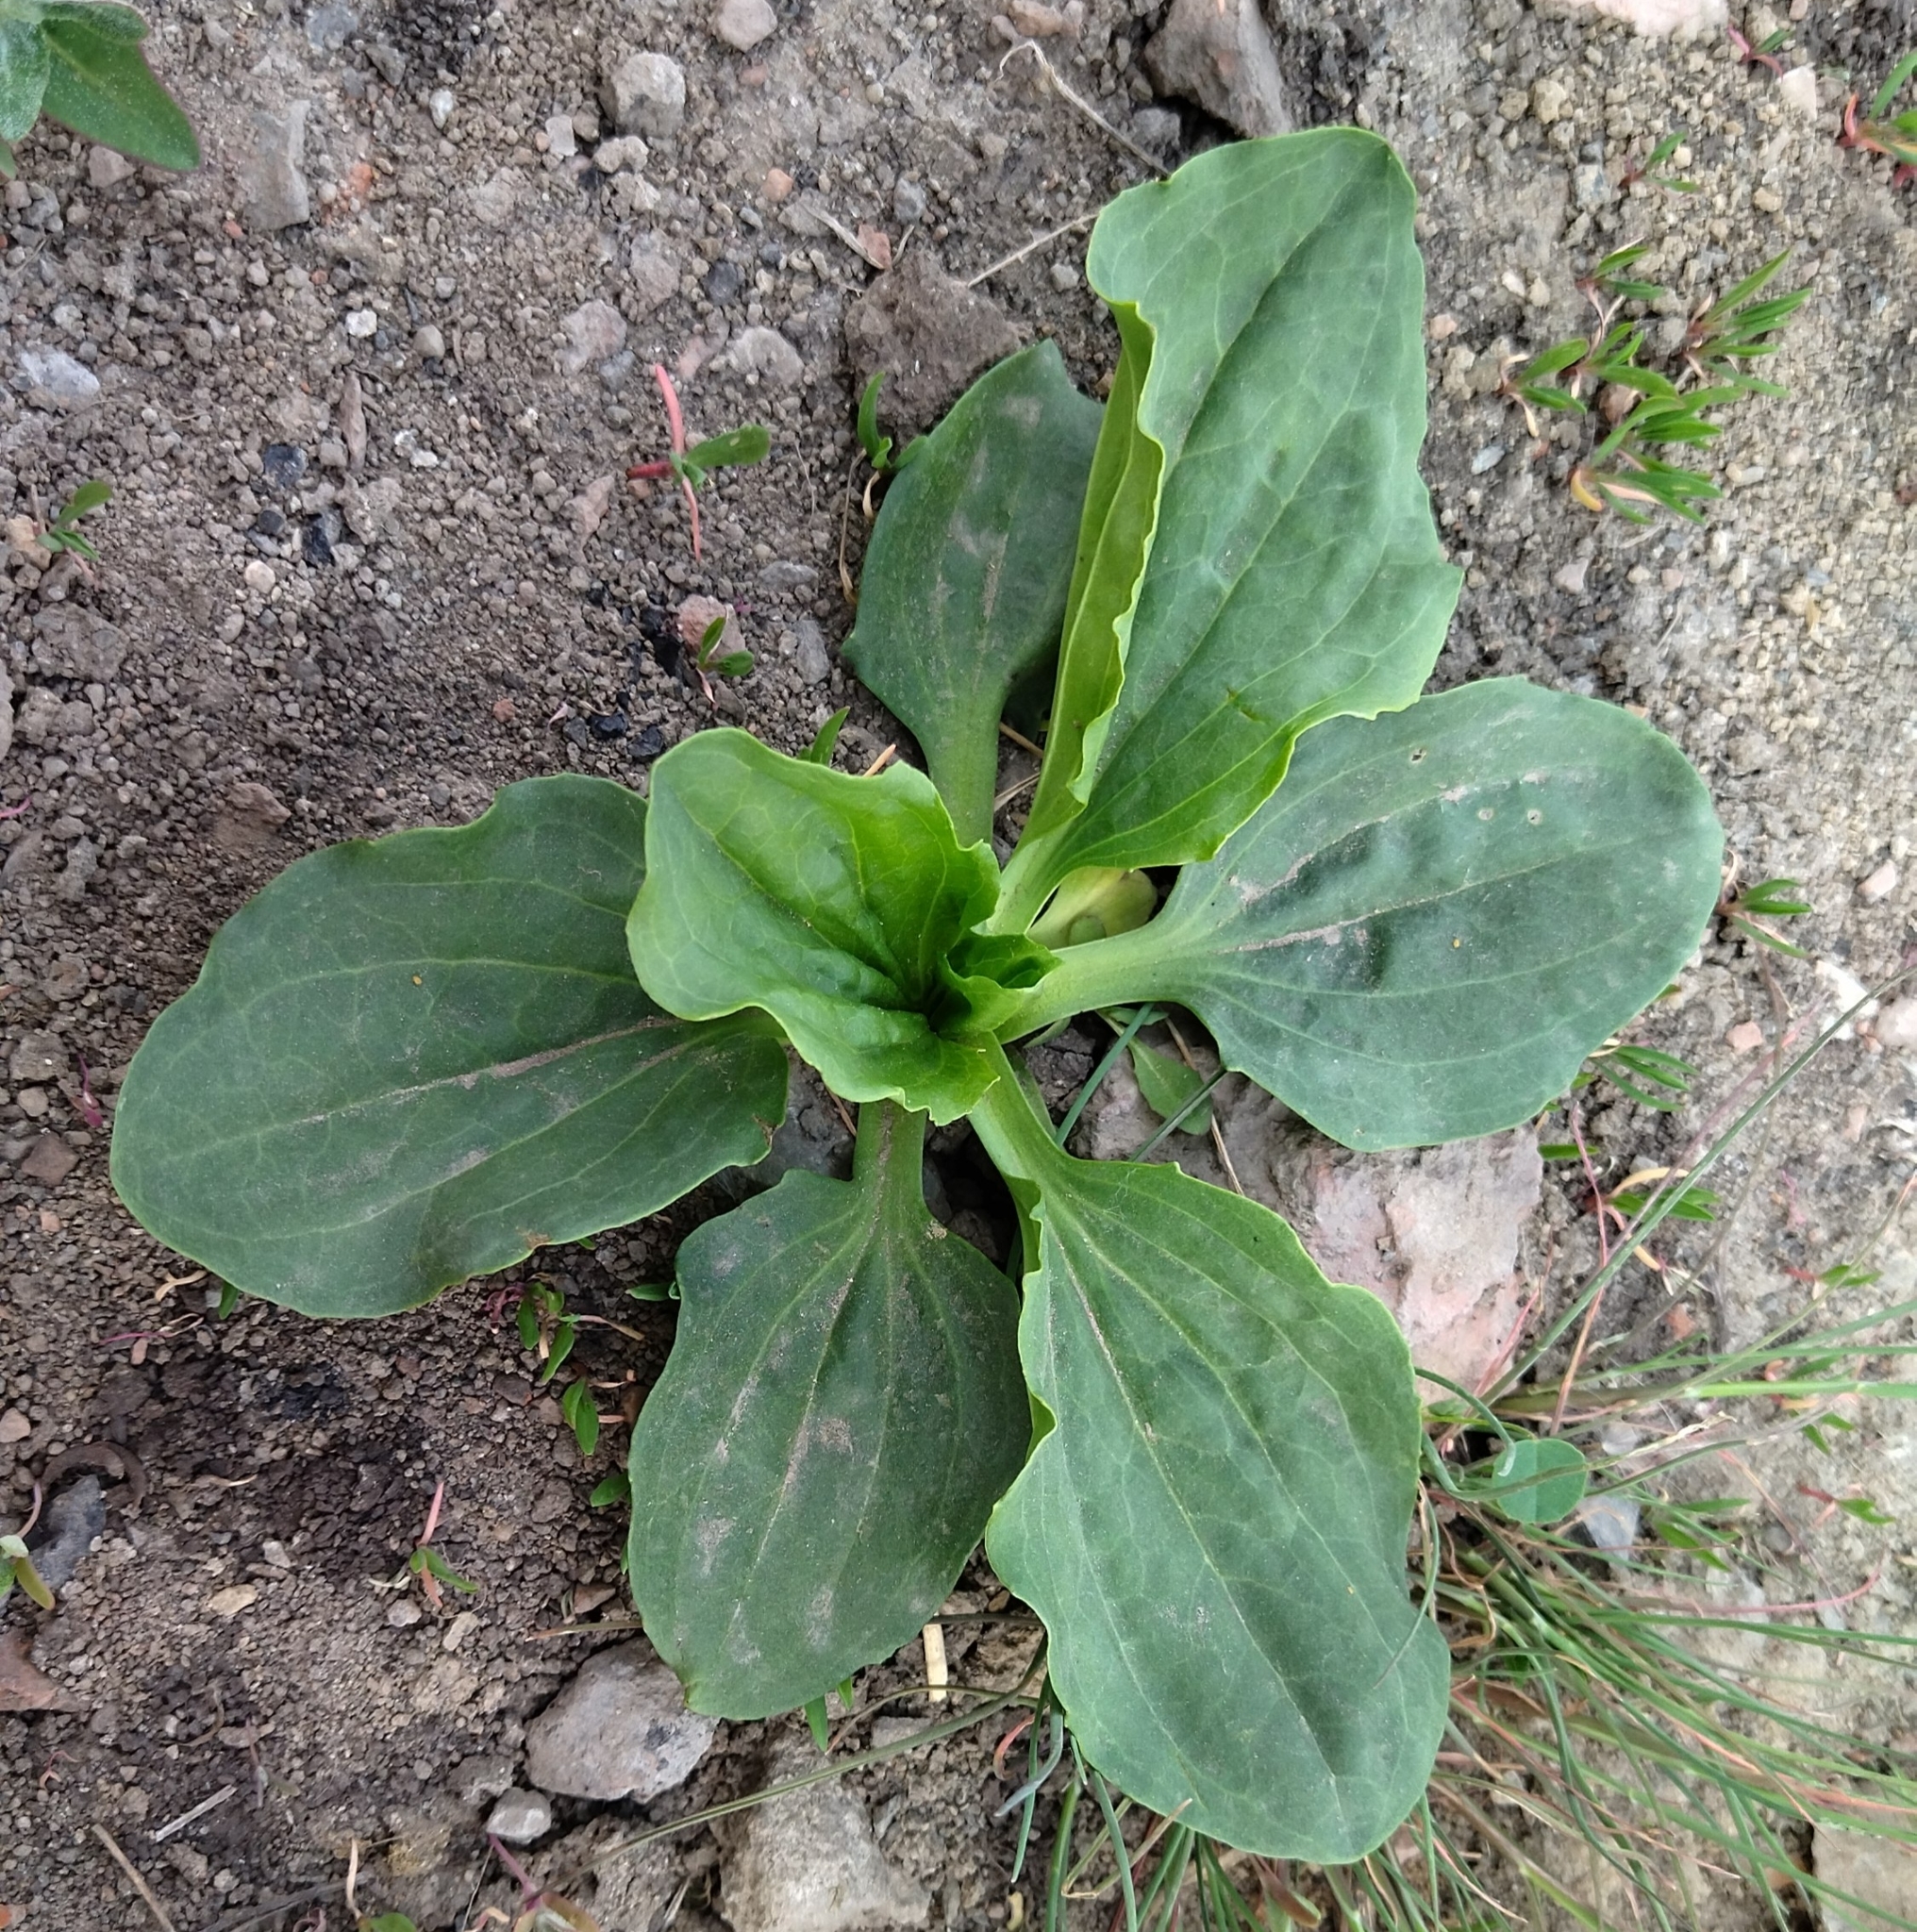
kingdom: Plantae
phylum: Tracheophyta
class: Magnoliopsida
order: Lamiales
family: Plantaginaceae
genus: Plantago
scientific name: Plantago major
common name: Common plantain
